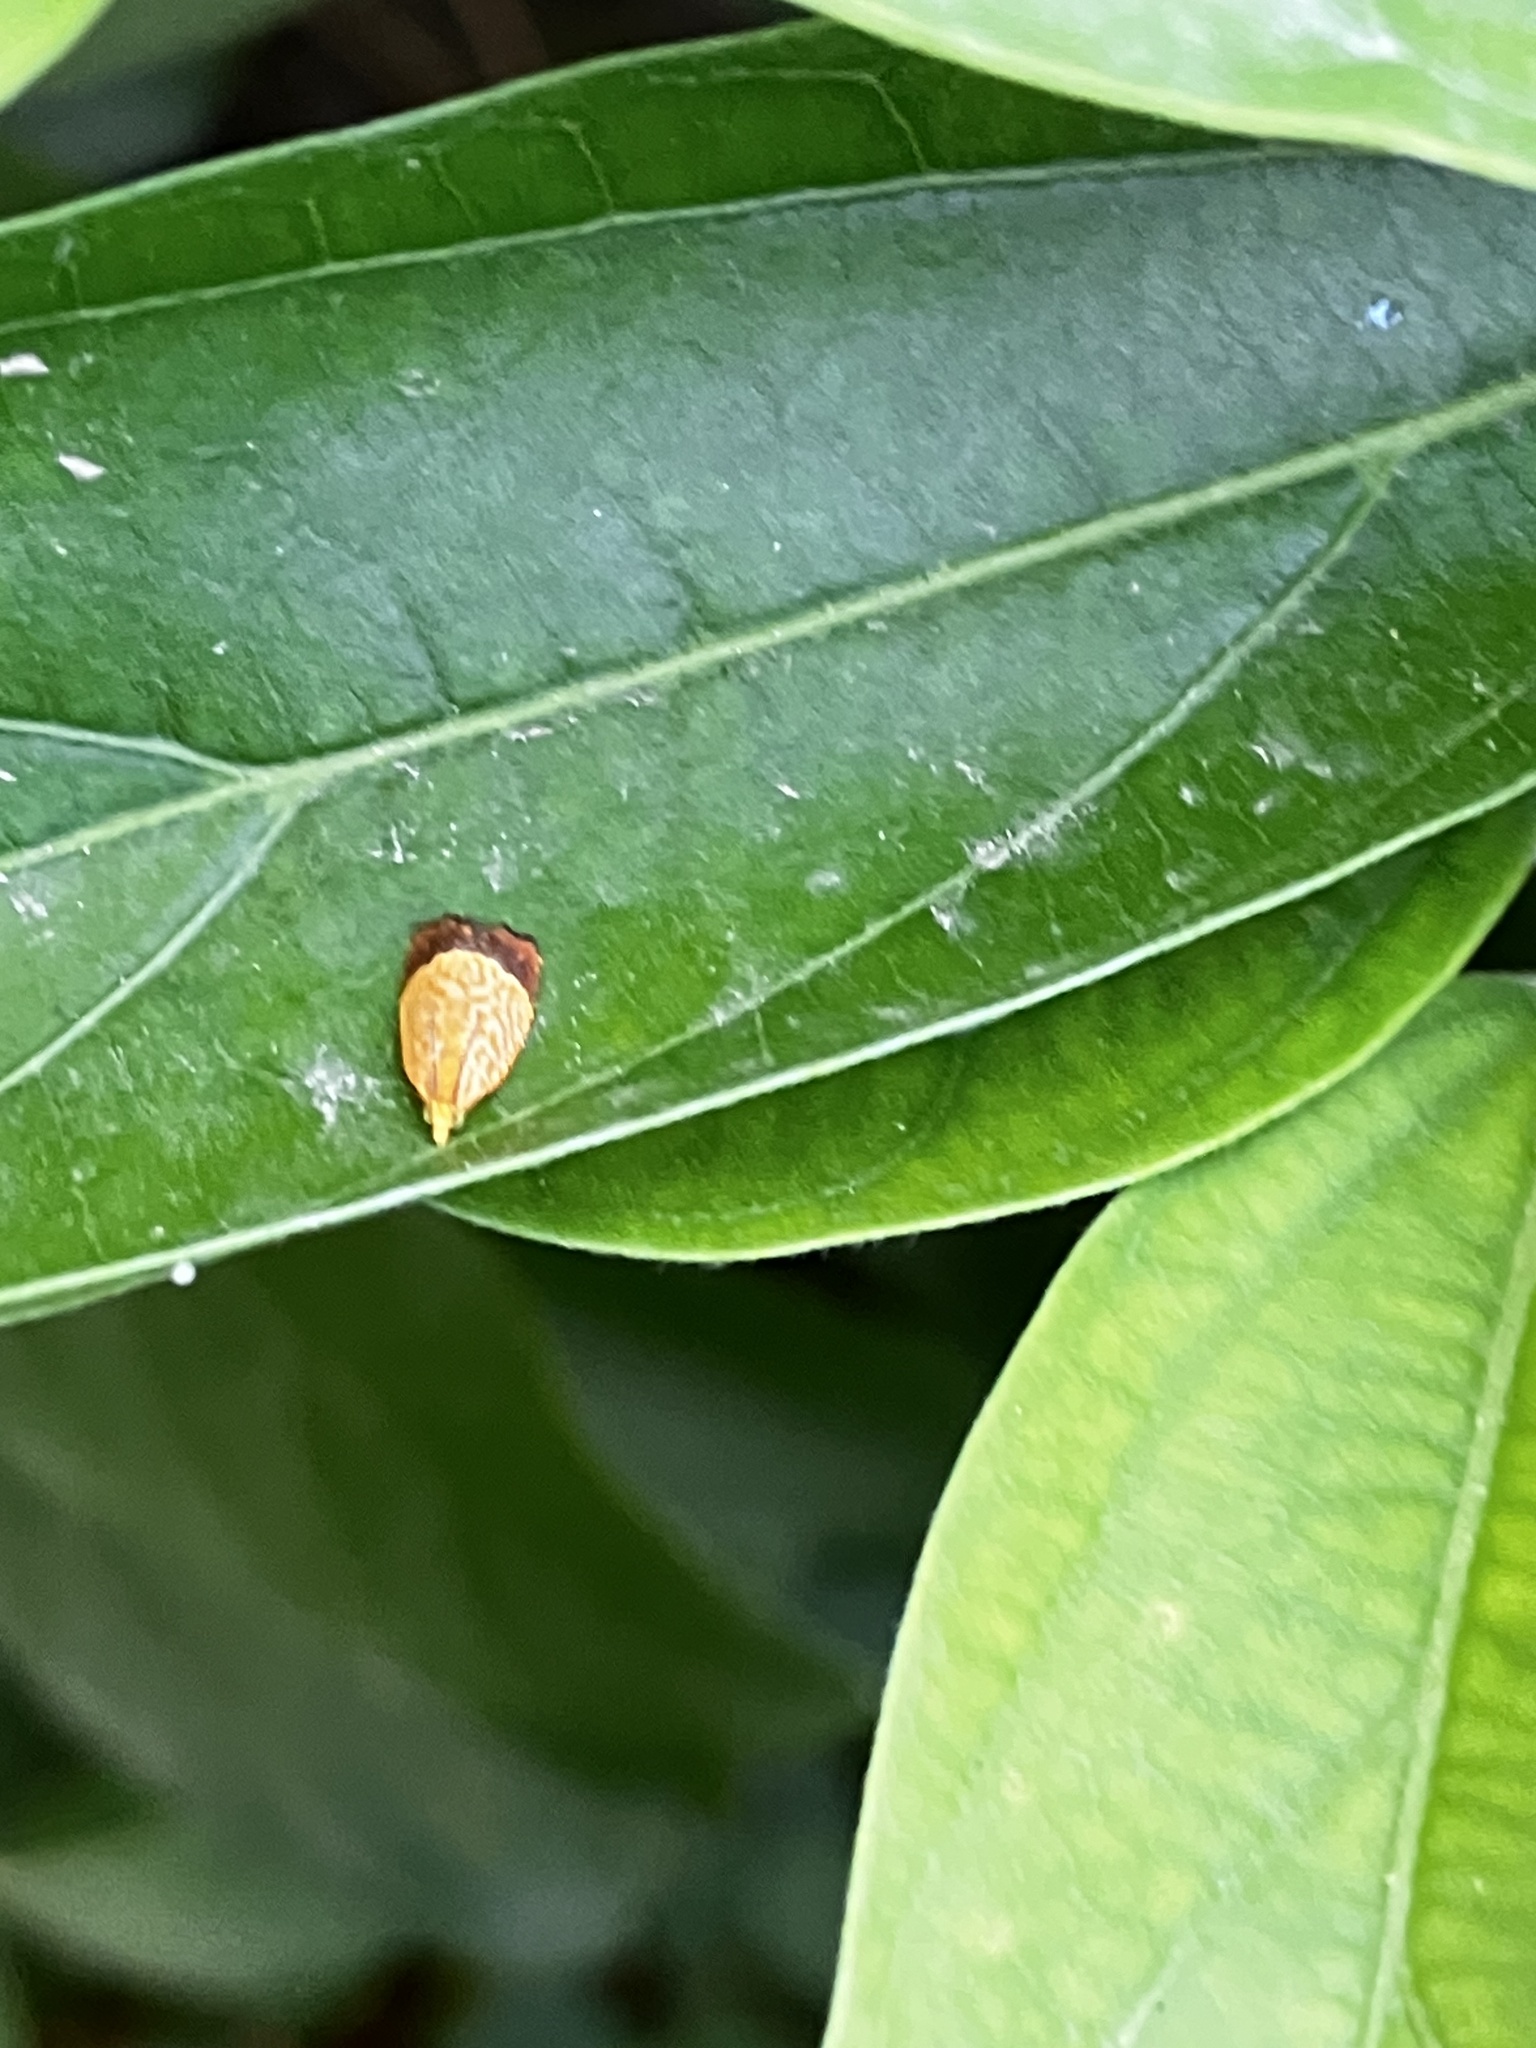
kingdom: Animalia
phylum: Arthropoda
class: Insecta
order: Lepidoptera
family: Tortricidae
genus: Loboschiza
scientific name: Loboschiza koenigiana
